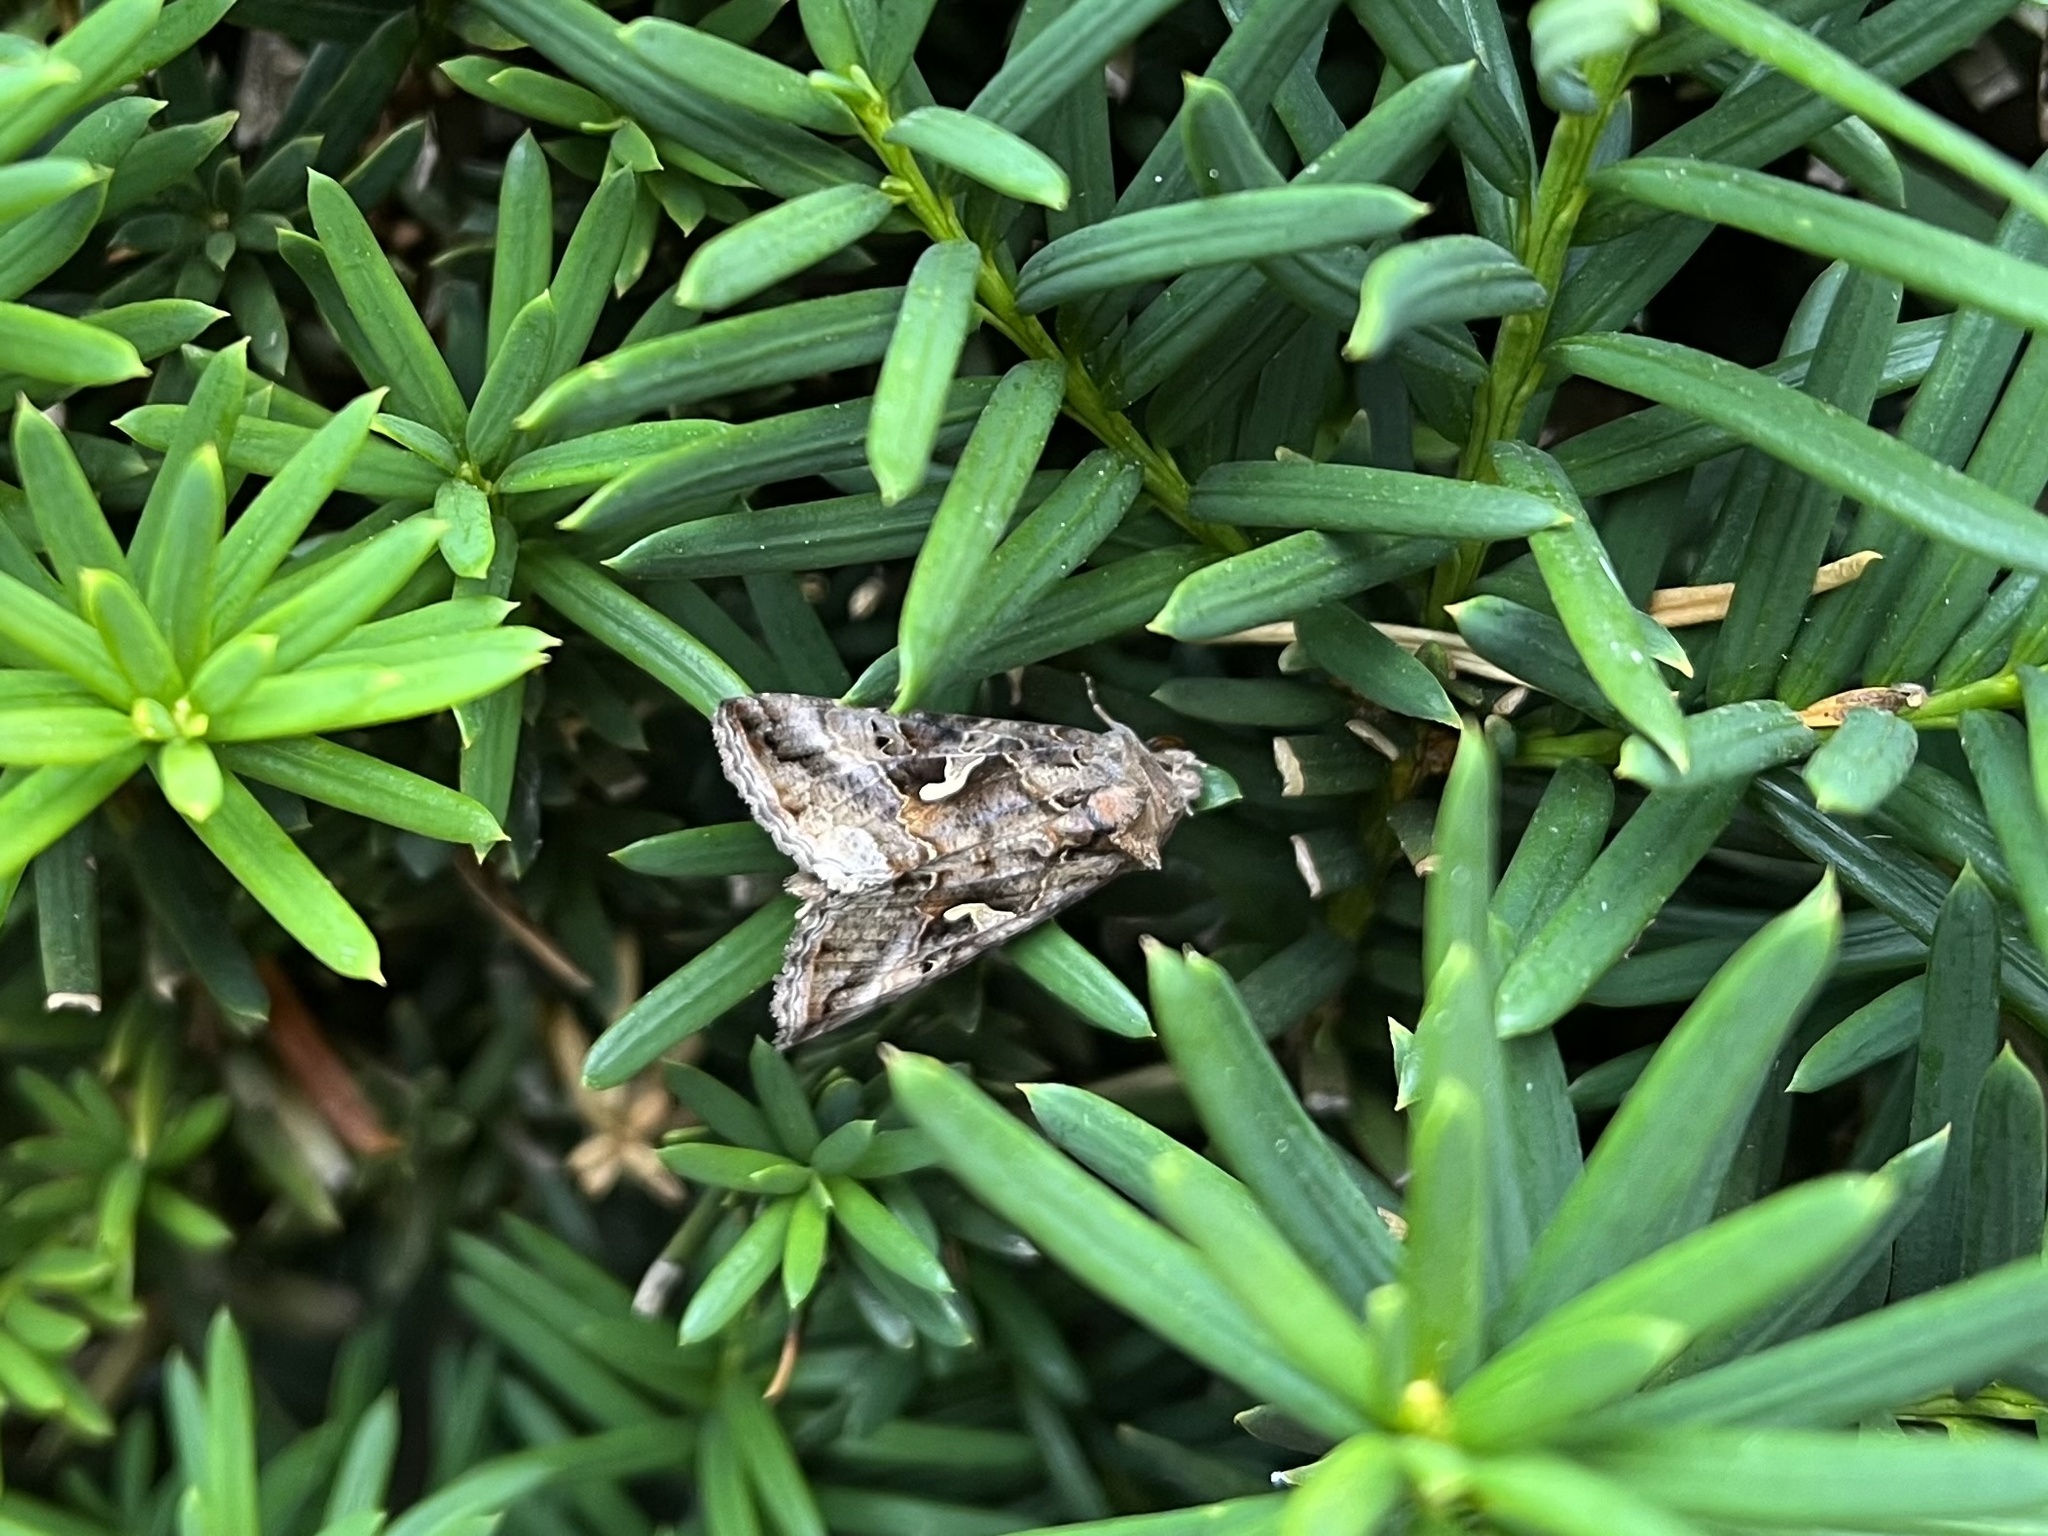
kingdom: Animalia
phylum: Arthropoda
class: Insecta
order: Lepidoptera
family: Noctuidae
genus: Autographa
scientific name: Autographa gamma
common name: Silver y
